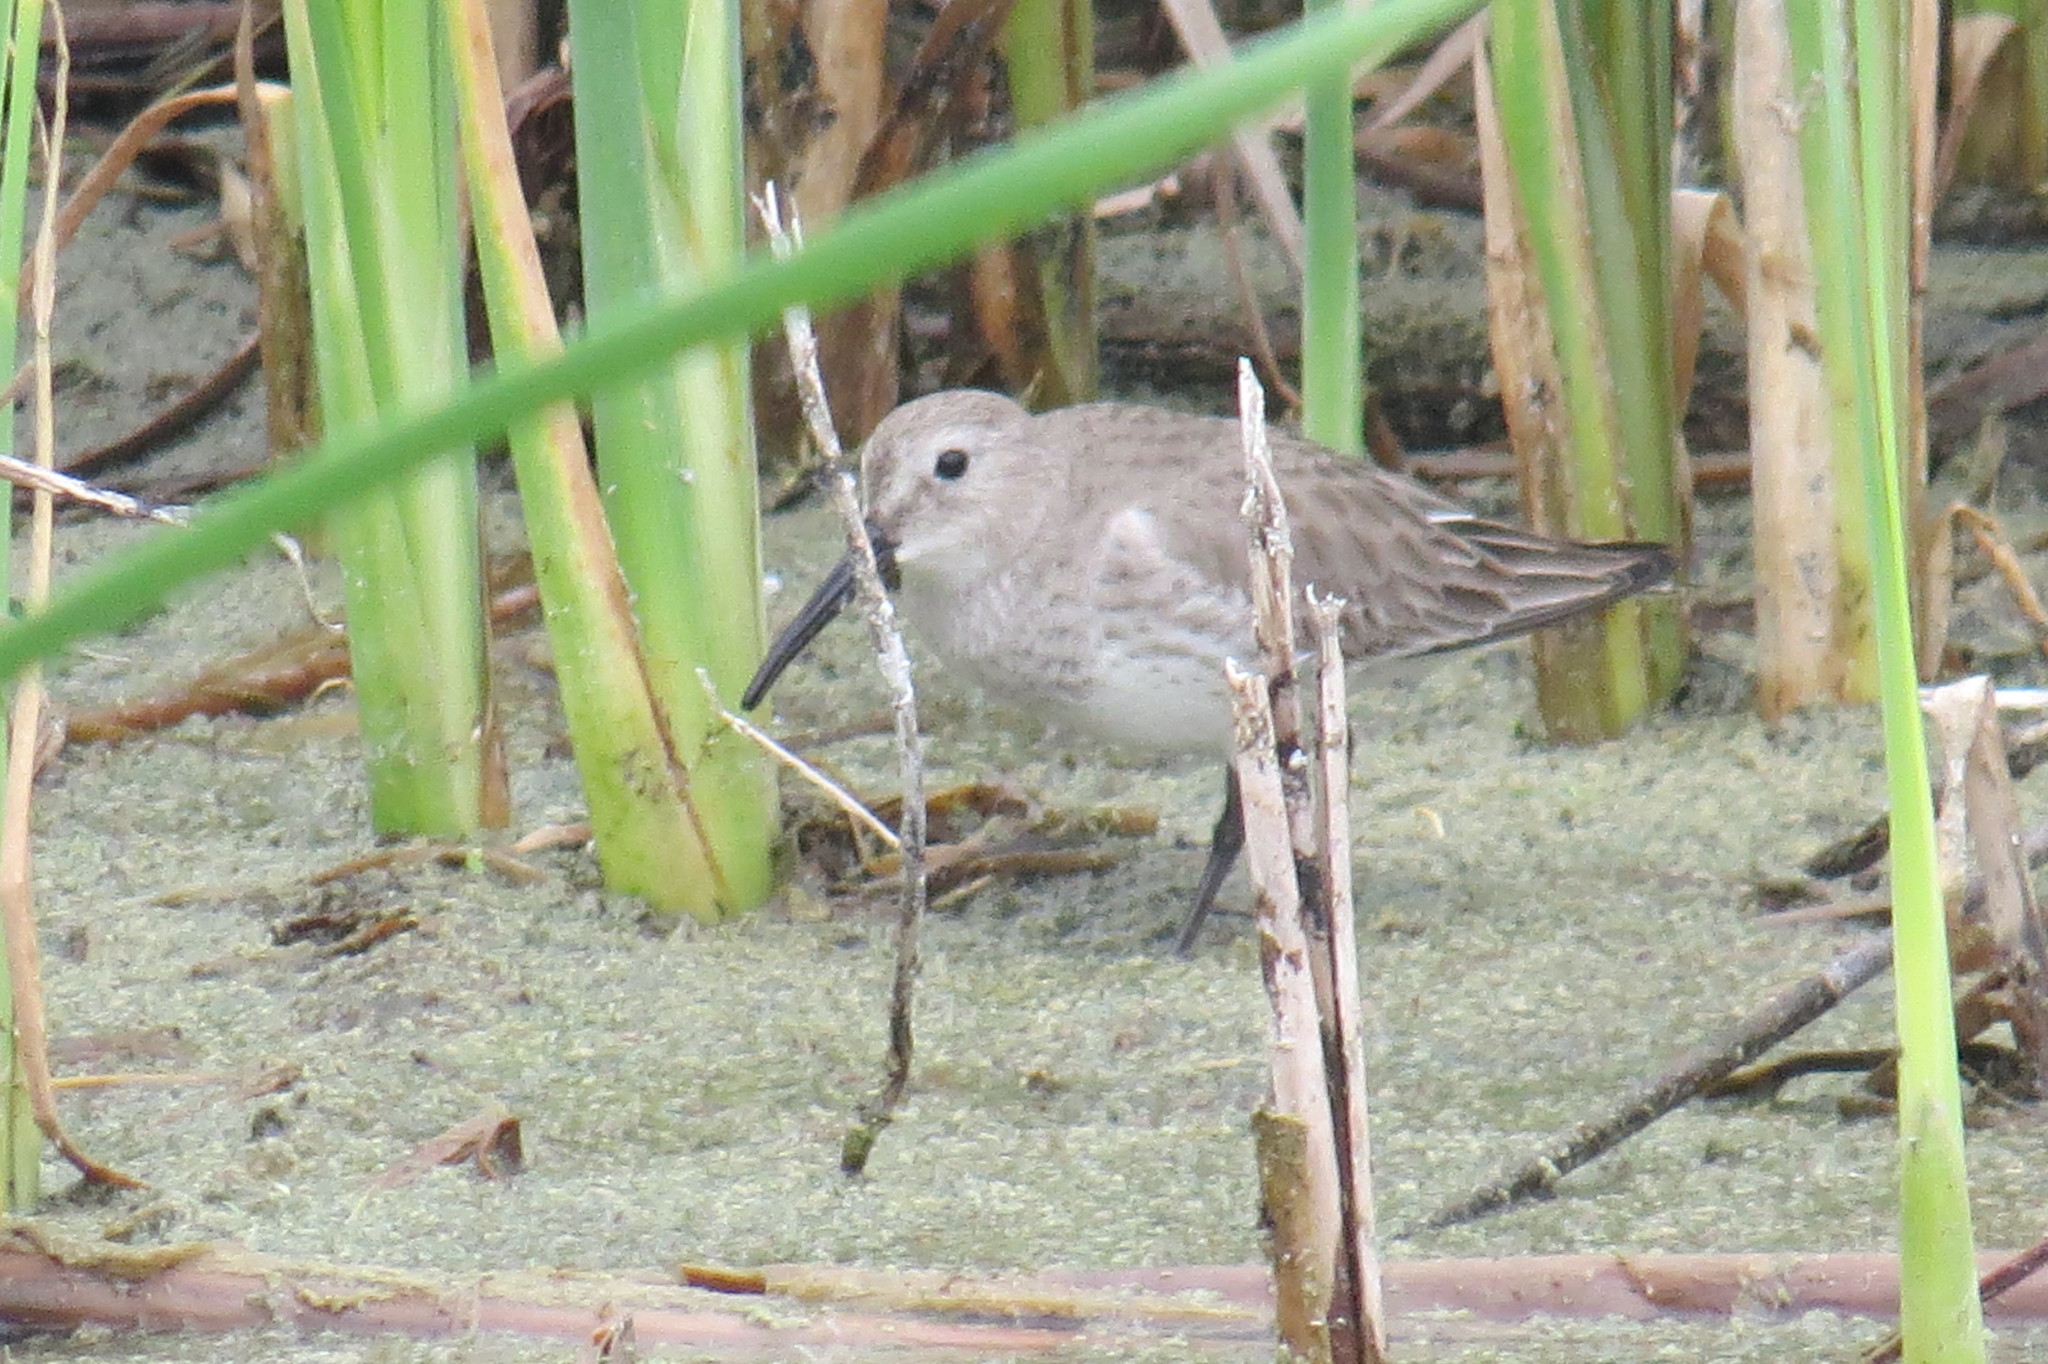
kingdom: Animalia
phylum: Chordata
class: Aves
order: Charadriiformes
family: Scolopacidae
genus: Calidris
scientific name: Calidris alpina
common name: Dunlin
